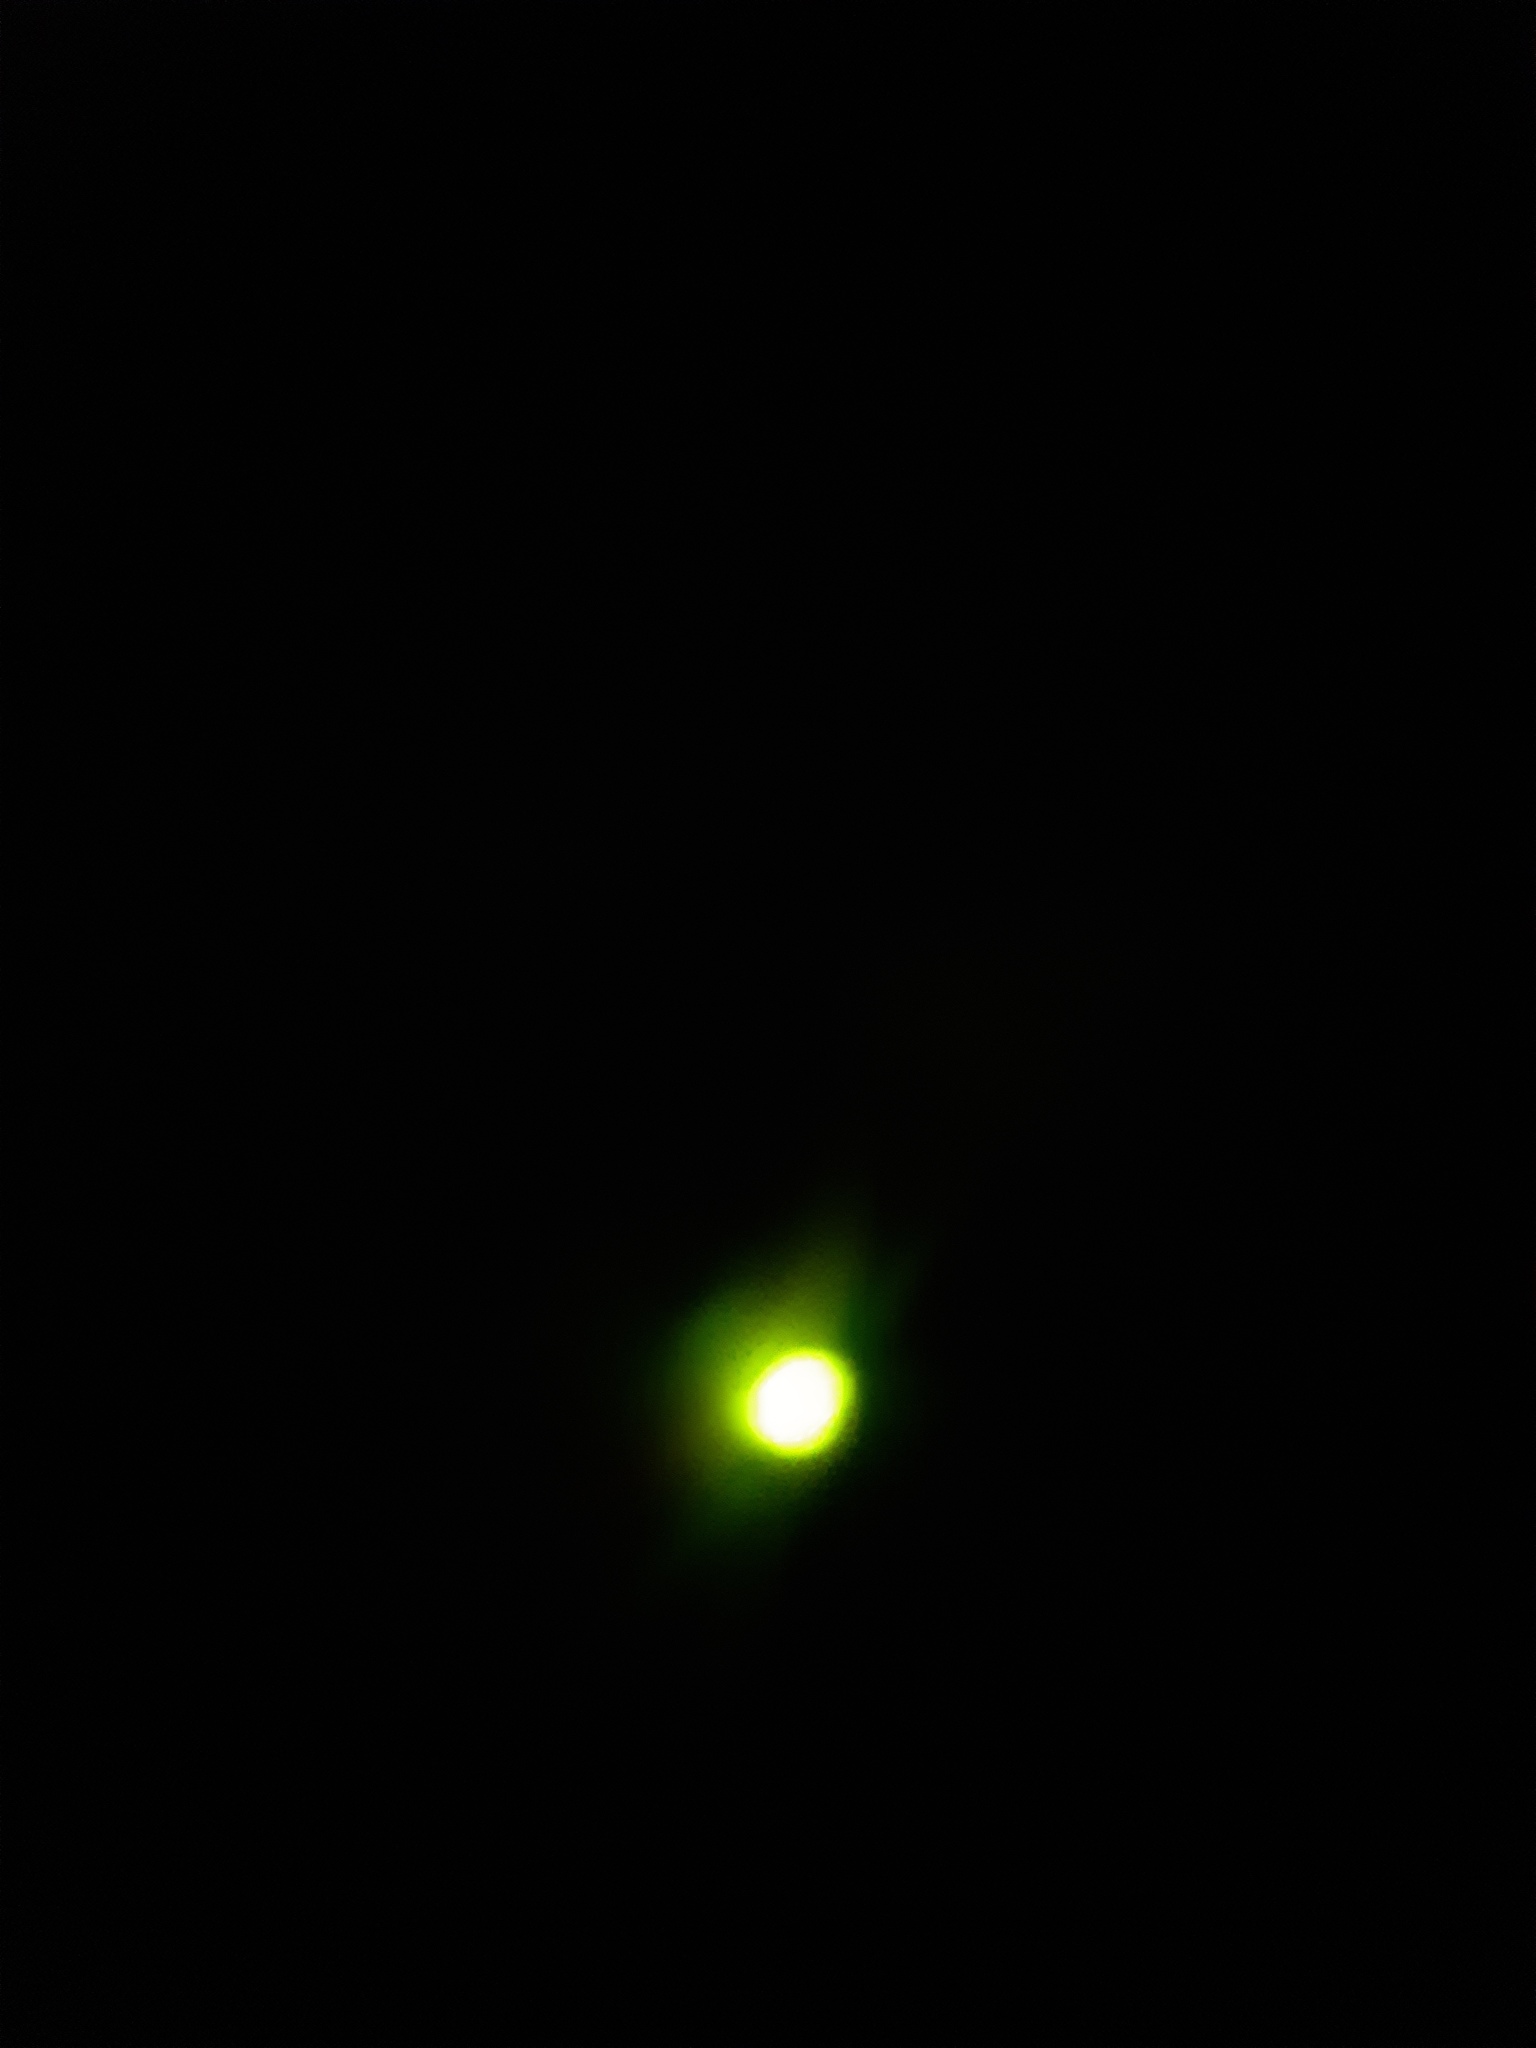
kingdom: Animalia
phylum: Arthropoda
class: Insecta
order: Coleoptera
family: Lampyridae
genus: Lampyris
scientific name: Lampyris noctiluca
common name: Glow-worm
